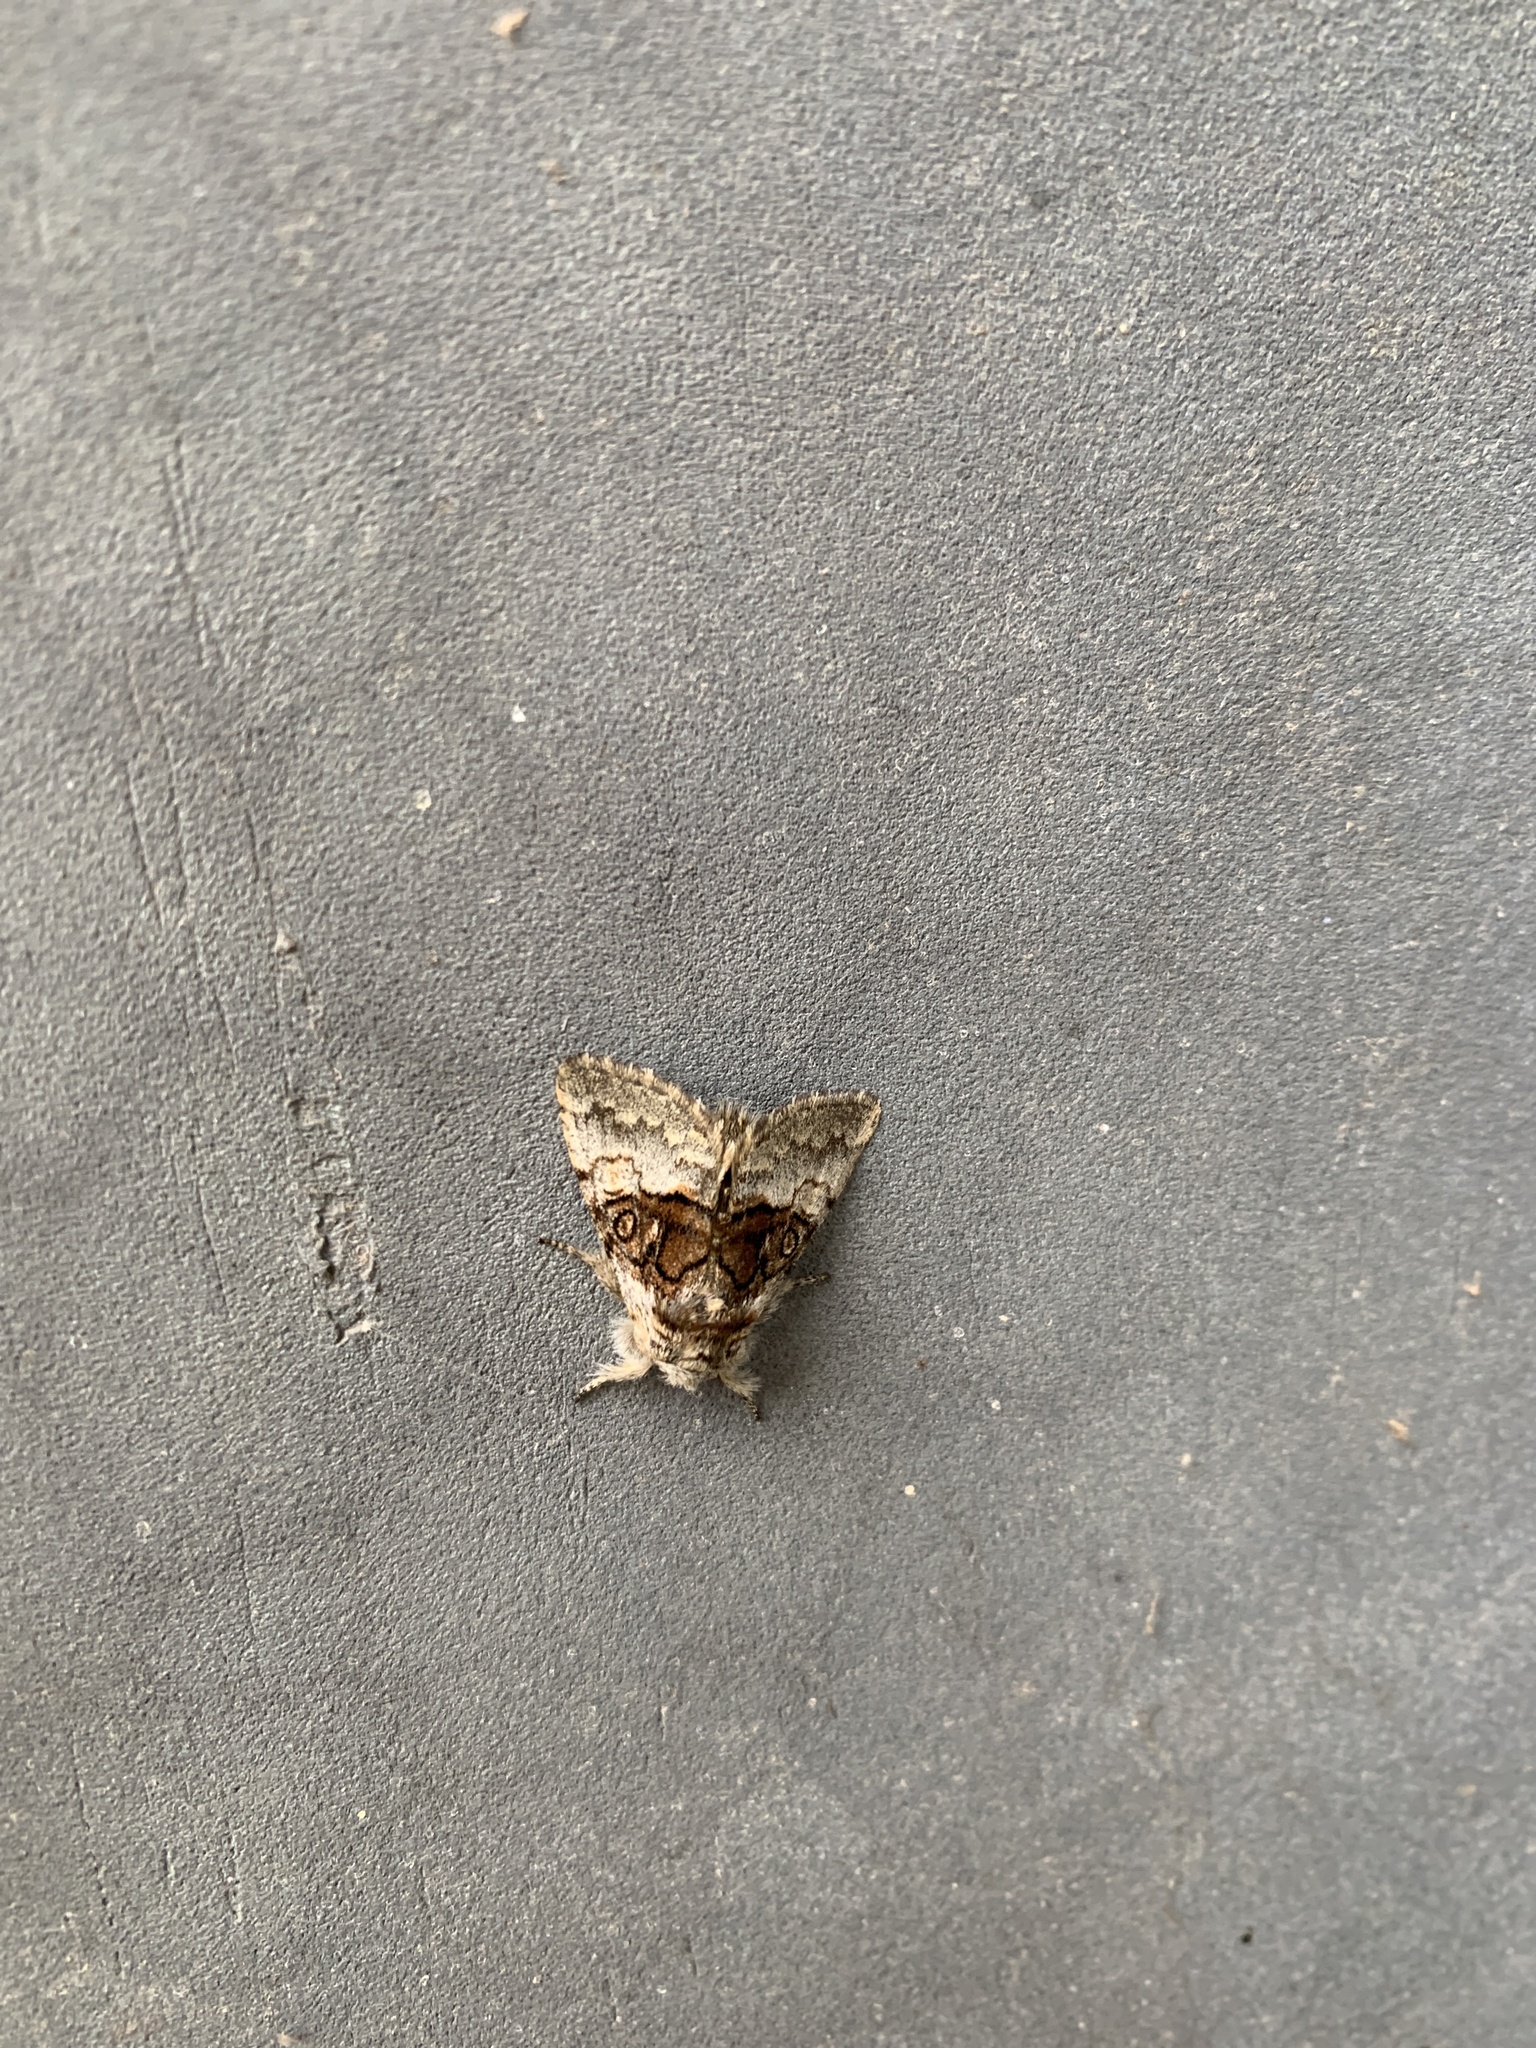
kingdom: Animalia
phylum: Arthropoda
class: Insecta
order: Lepidoptera
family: Noctuidae
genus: Colocasia
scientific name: Colocasia coryli
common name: Nut-tree tussock
